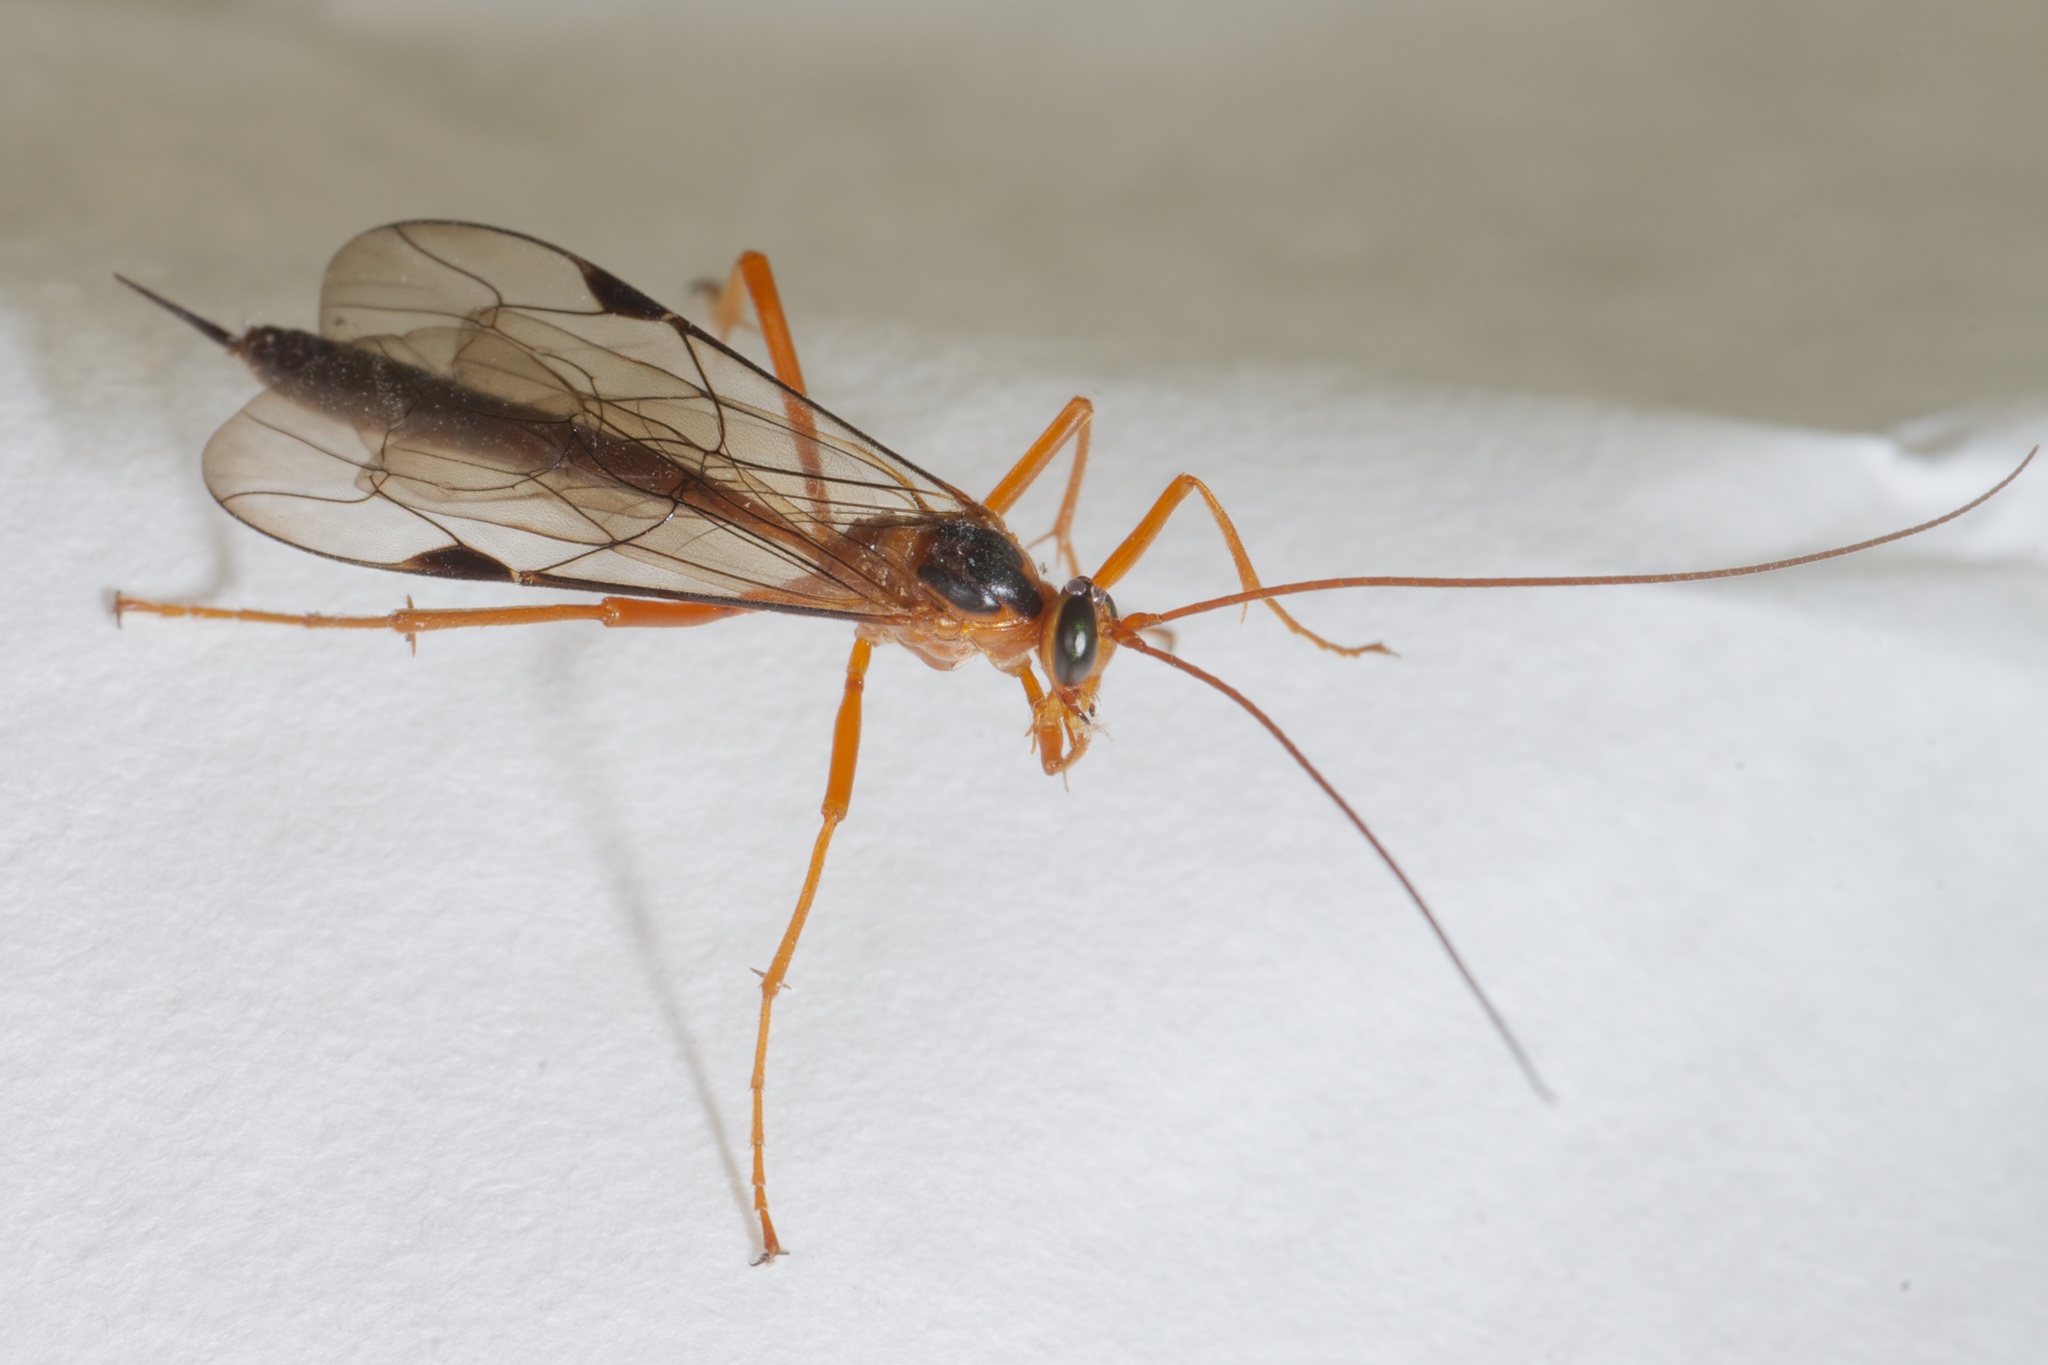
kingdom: Animalia
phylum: Arthropoda
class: Insecta
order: Hymenoptera
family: Ichneumonidae
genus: Netelia
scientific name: Netelia ephippiata
